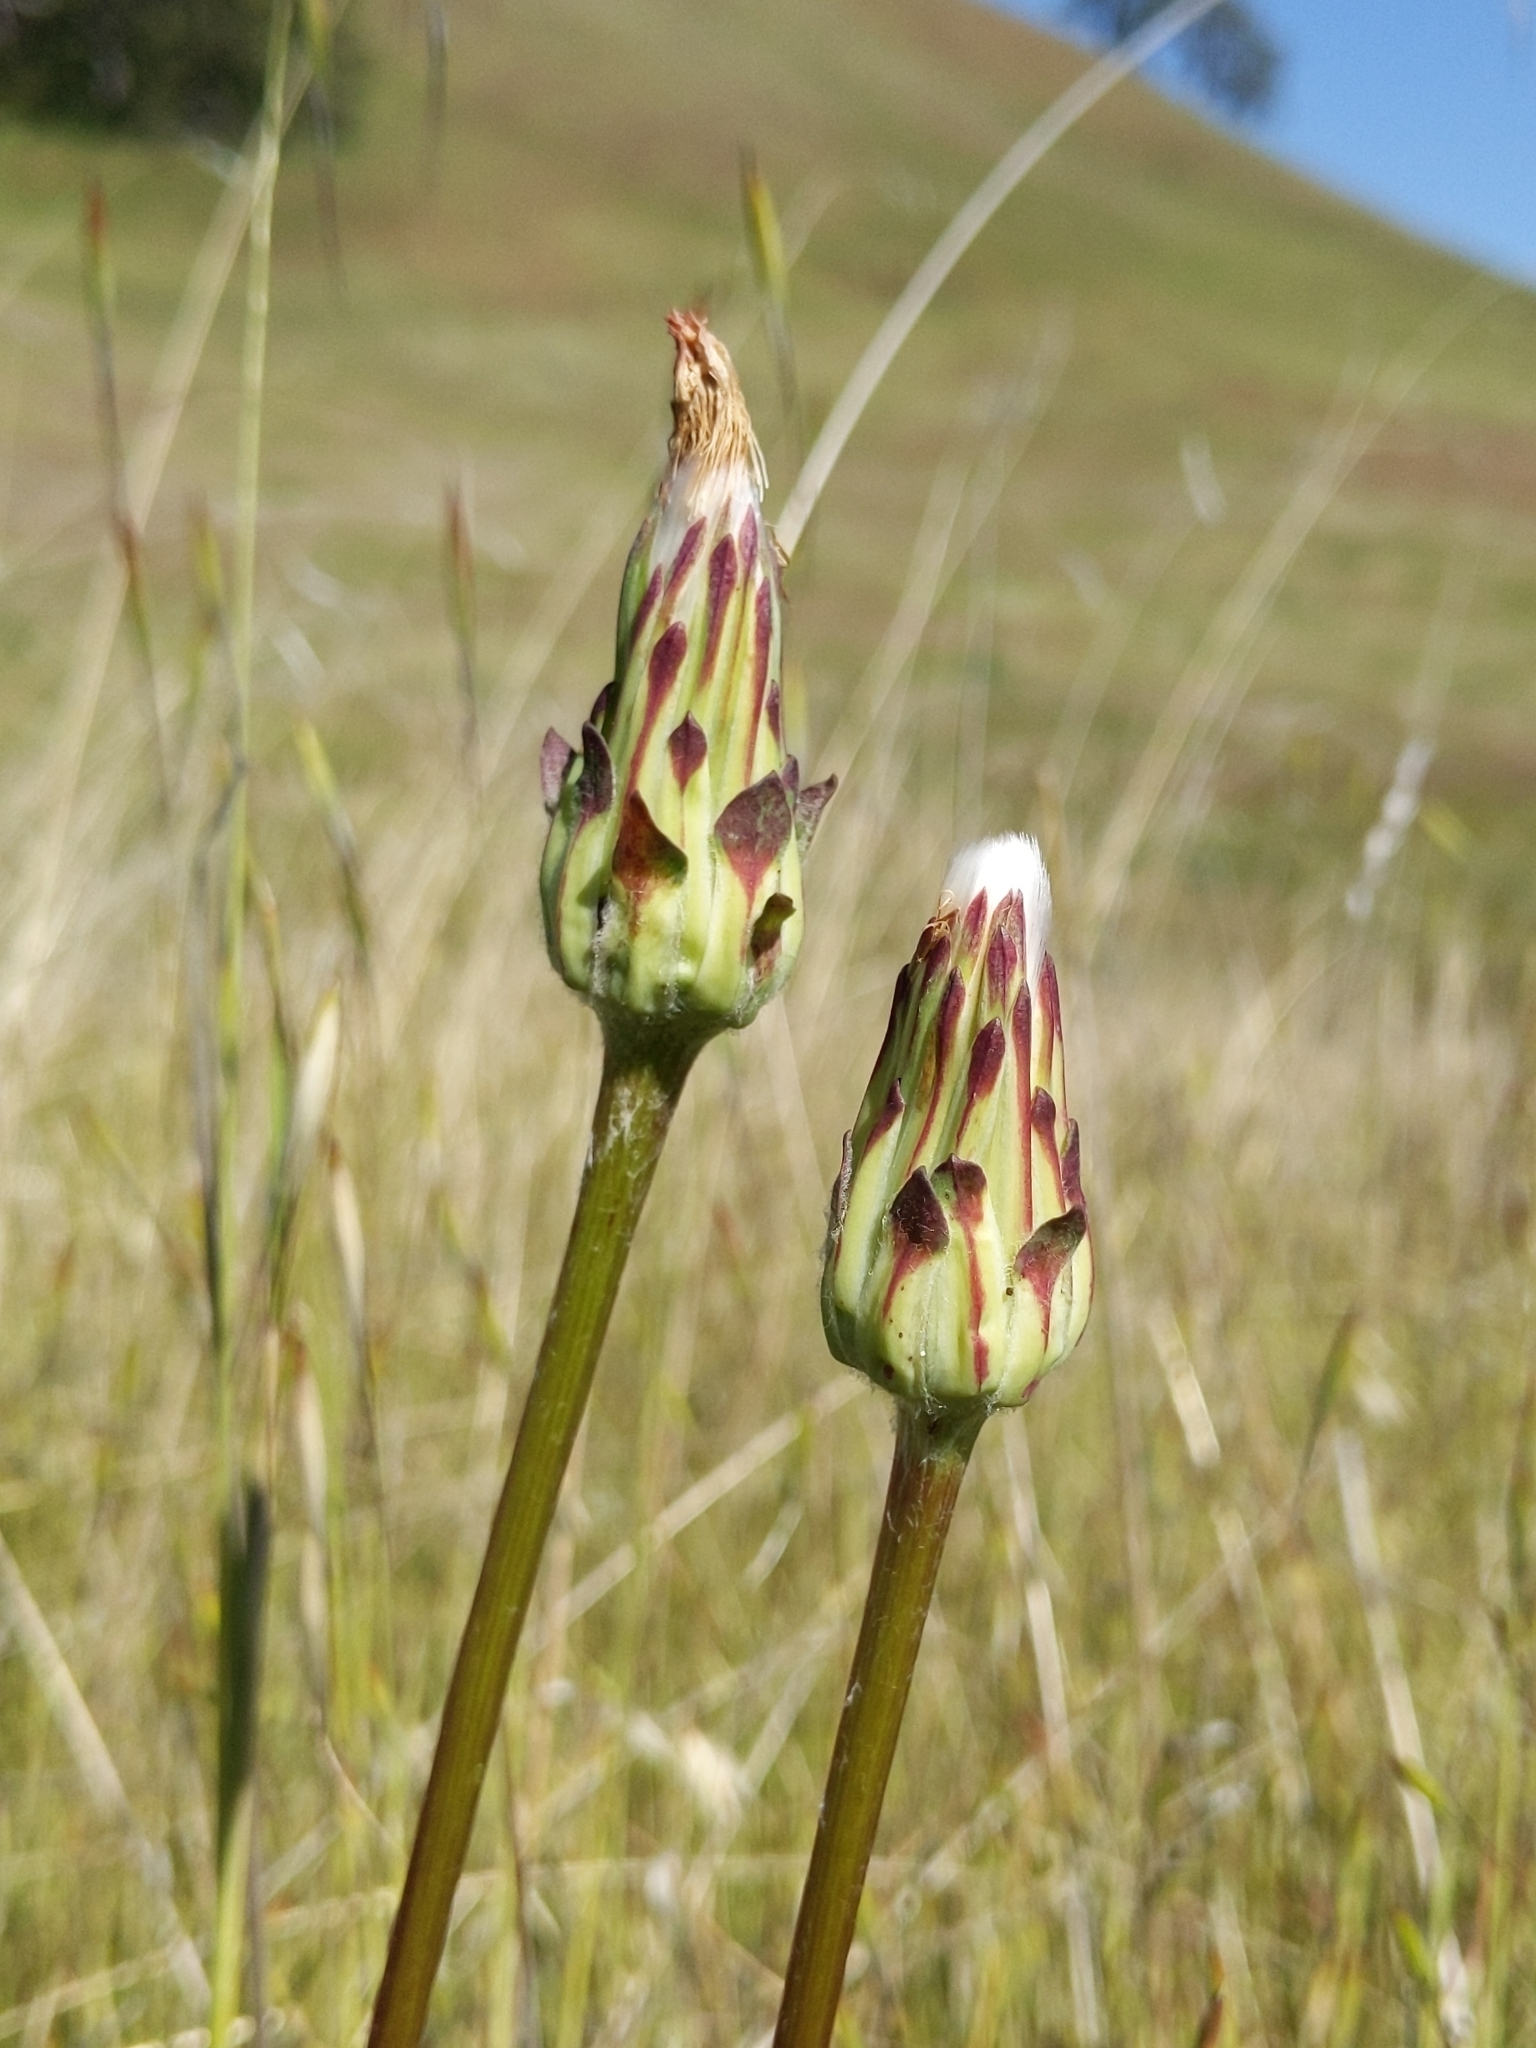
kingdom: Plantae
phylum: Tracheophyta
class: Magnoliopsida
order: Asterales
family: Asteraceae
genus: Agoseris
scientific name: Agoseris grandiflora
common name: Grassland agoseris
